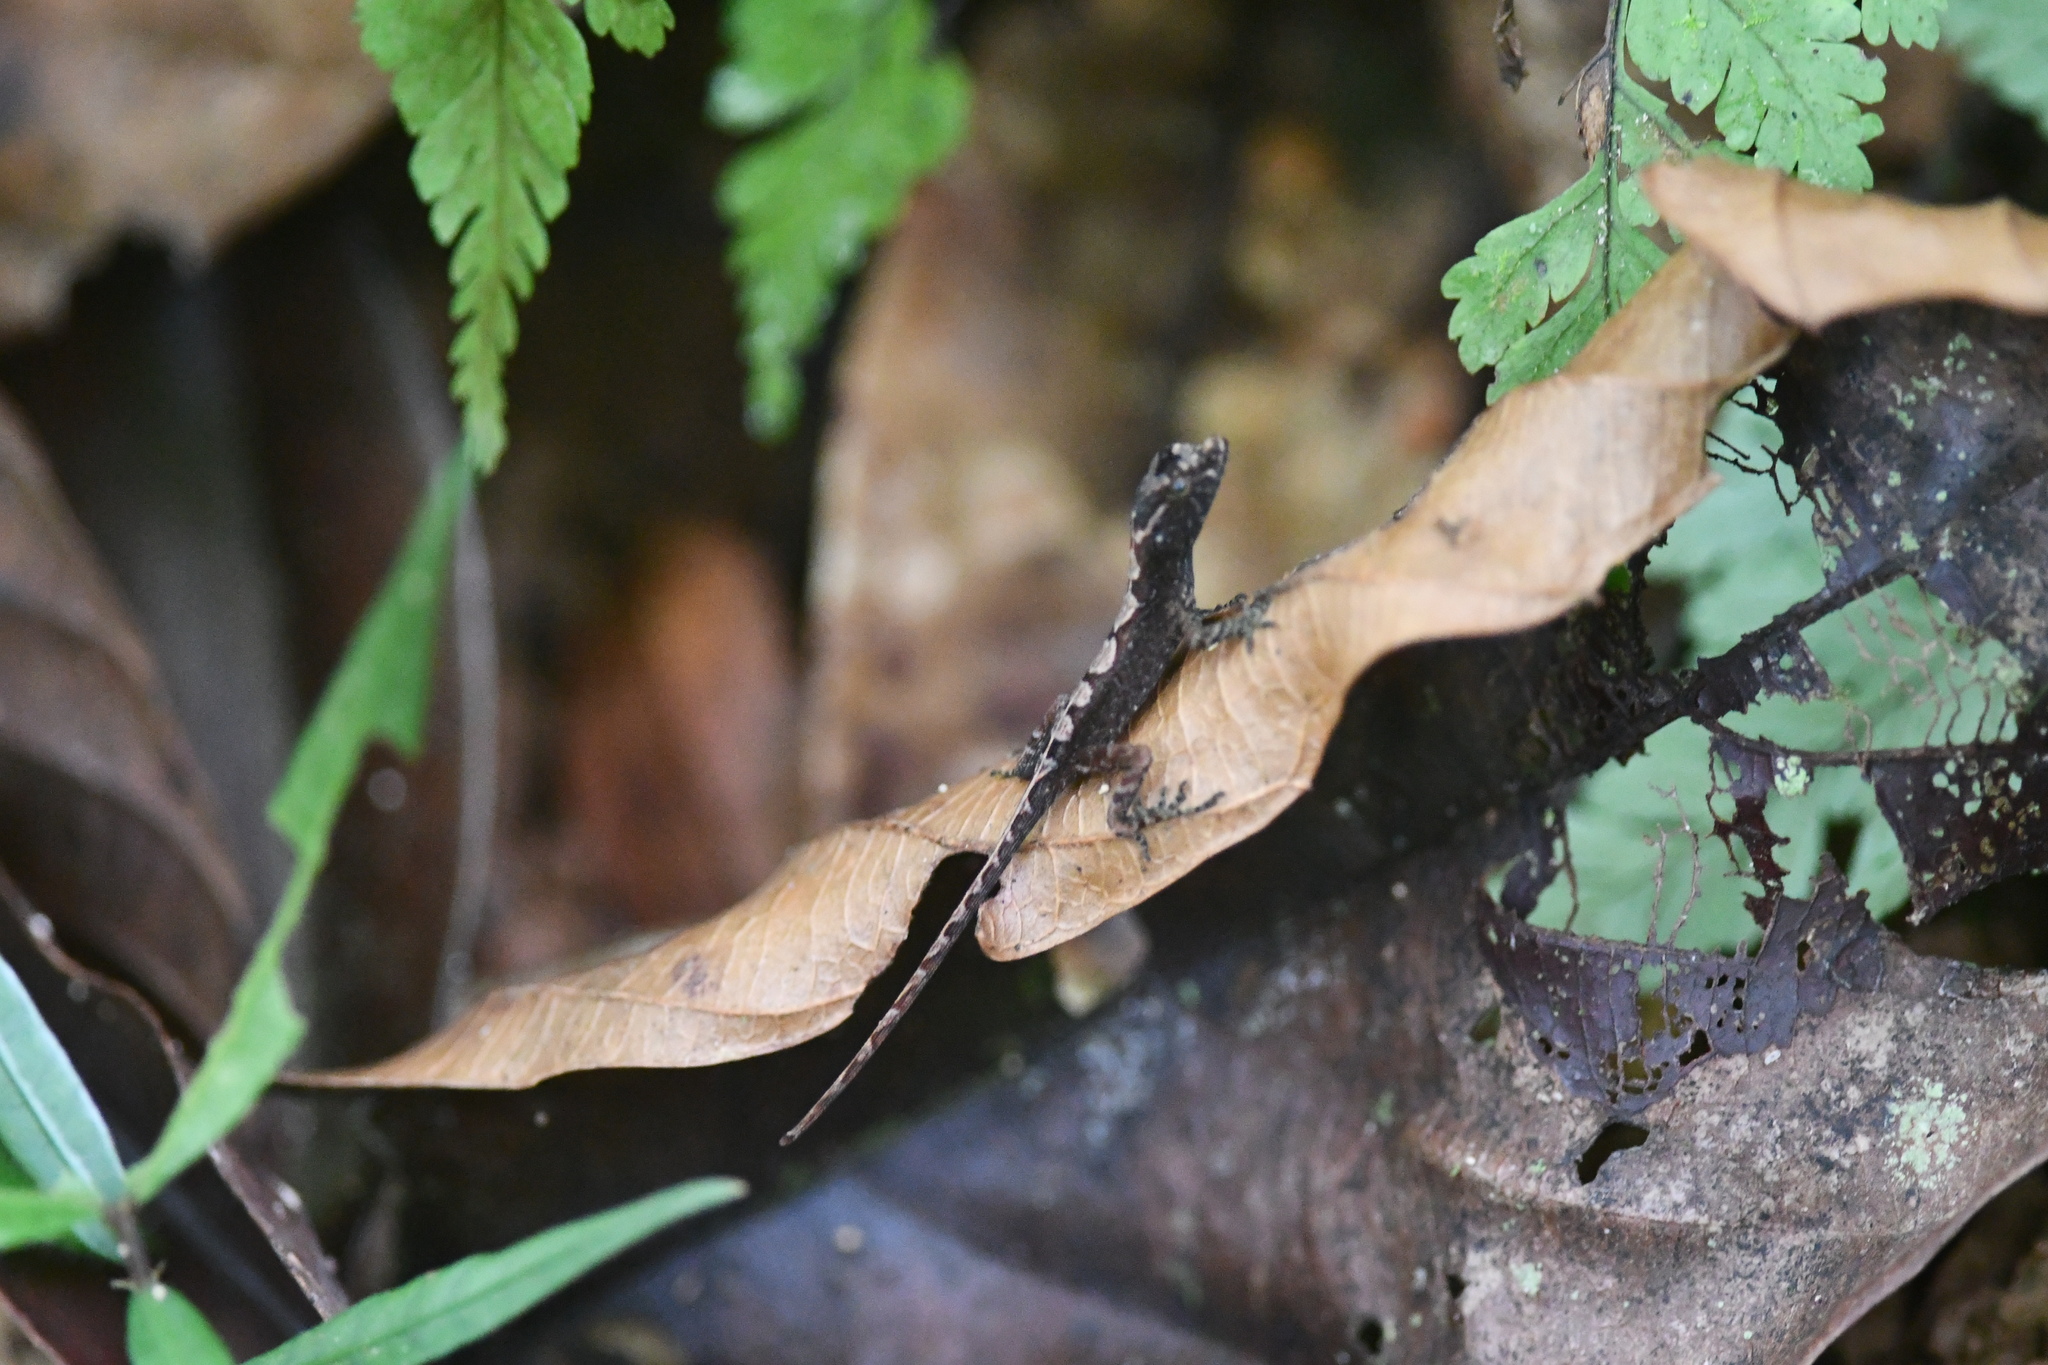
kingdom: Animalia
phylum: Chordata
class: Squamata
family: Dactyloidae
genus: Anolis
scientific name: Anolis humilis
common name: Humble anole
